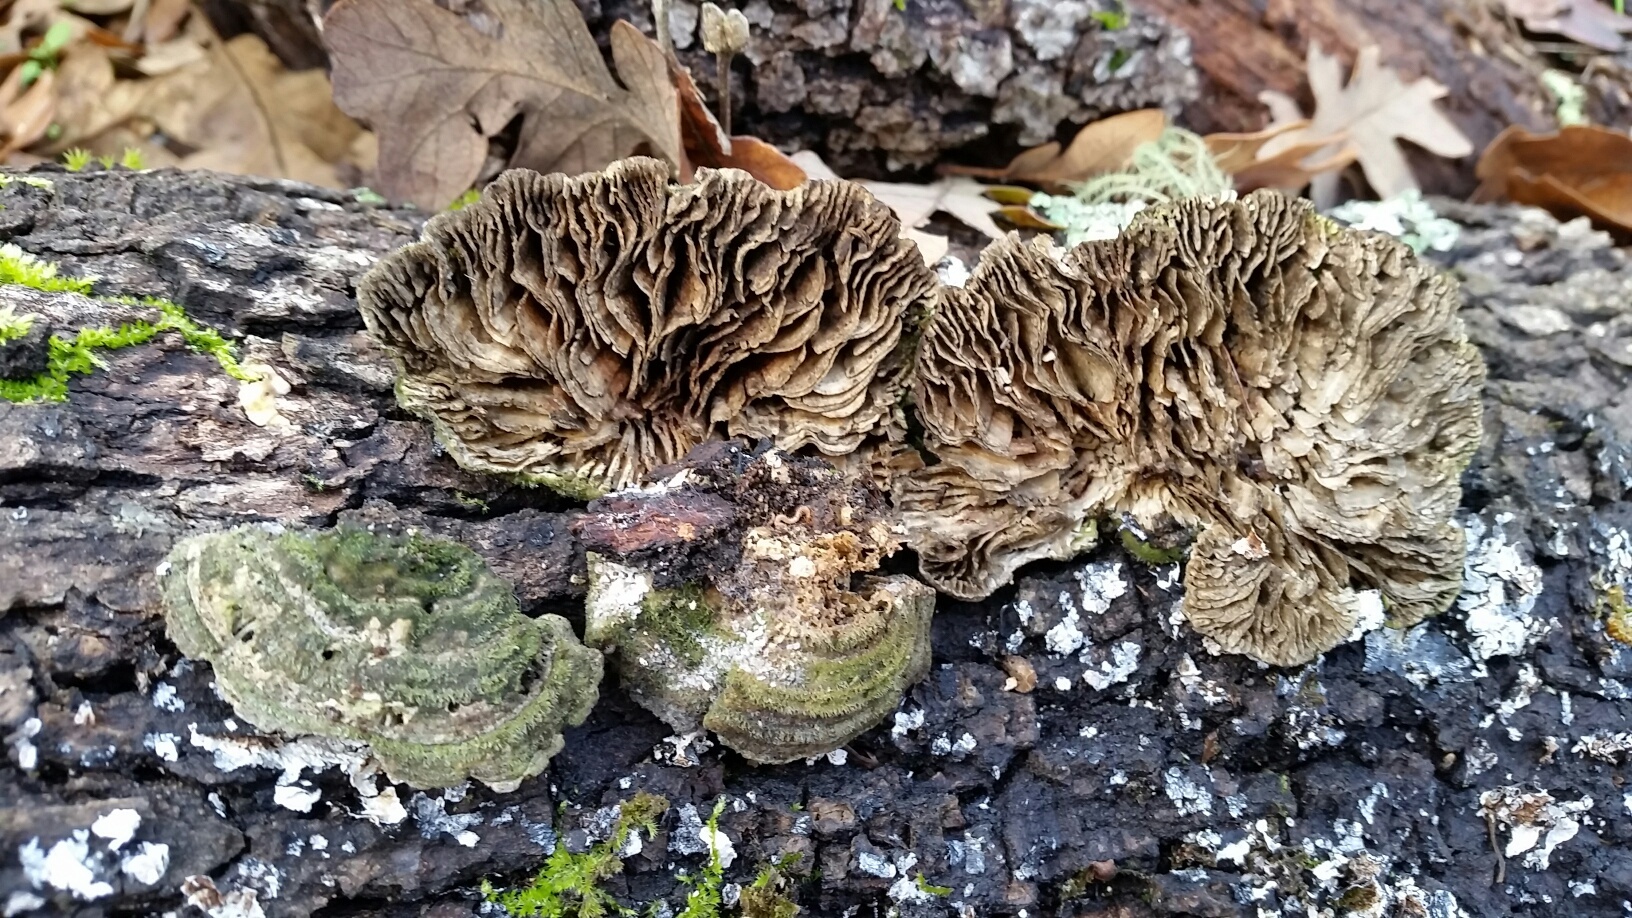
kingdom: Fungi
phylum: Basidiomycota
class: Agaricomycetes
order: Polyporales
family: Polyporaceae
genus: Lenzites
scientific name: Lenzites betulinus
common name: Birch mazegill
